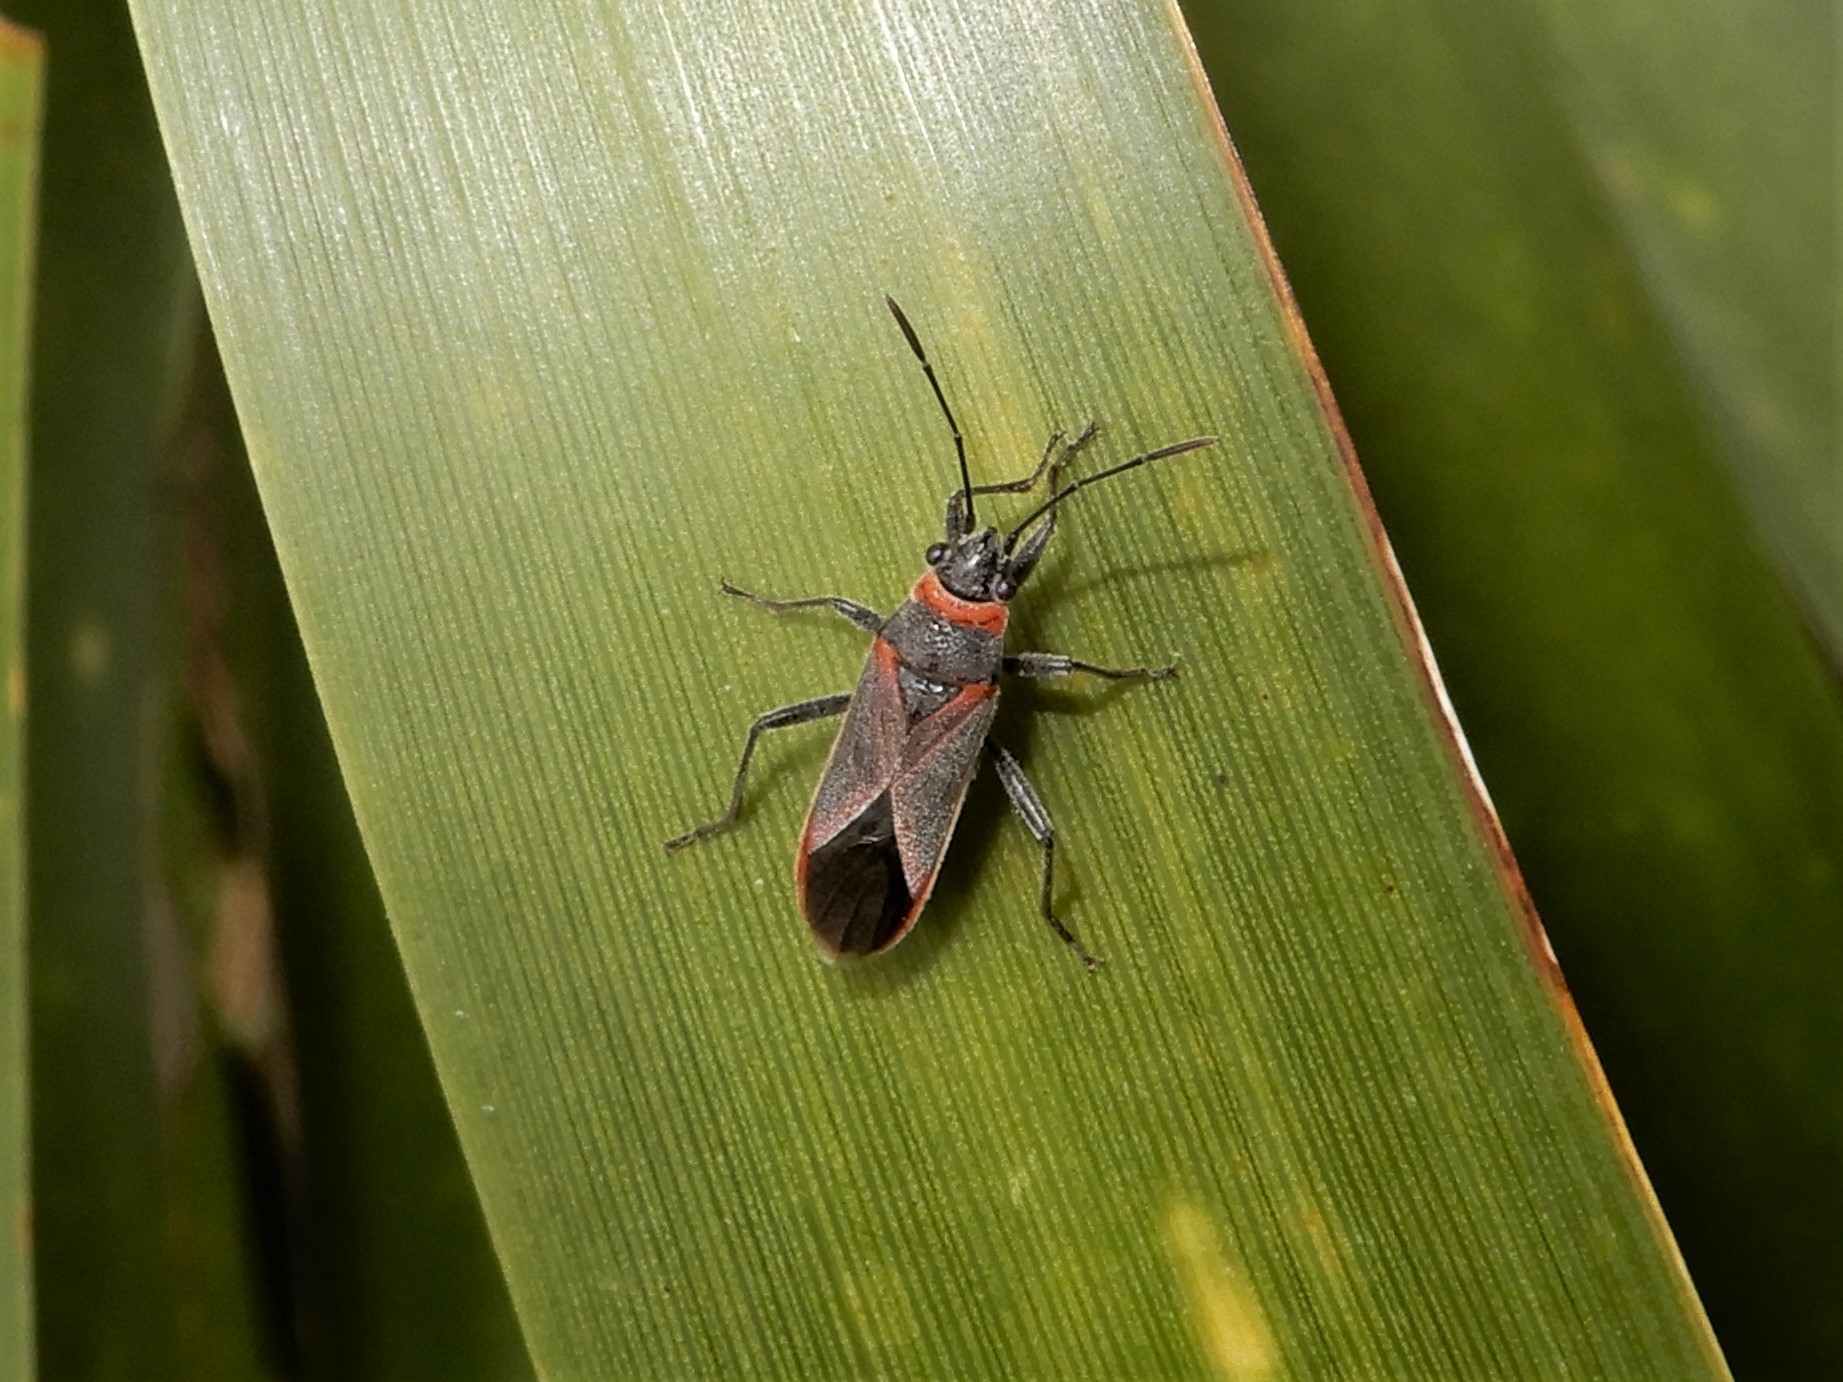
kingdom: Animalia
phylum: Arthropoda
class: Insecta
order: Hemiptera
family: Lygaeidae
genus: Arocatus
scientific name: Arocatus rusticus
